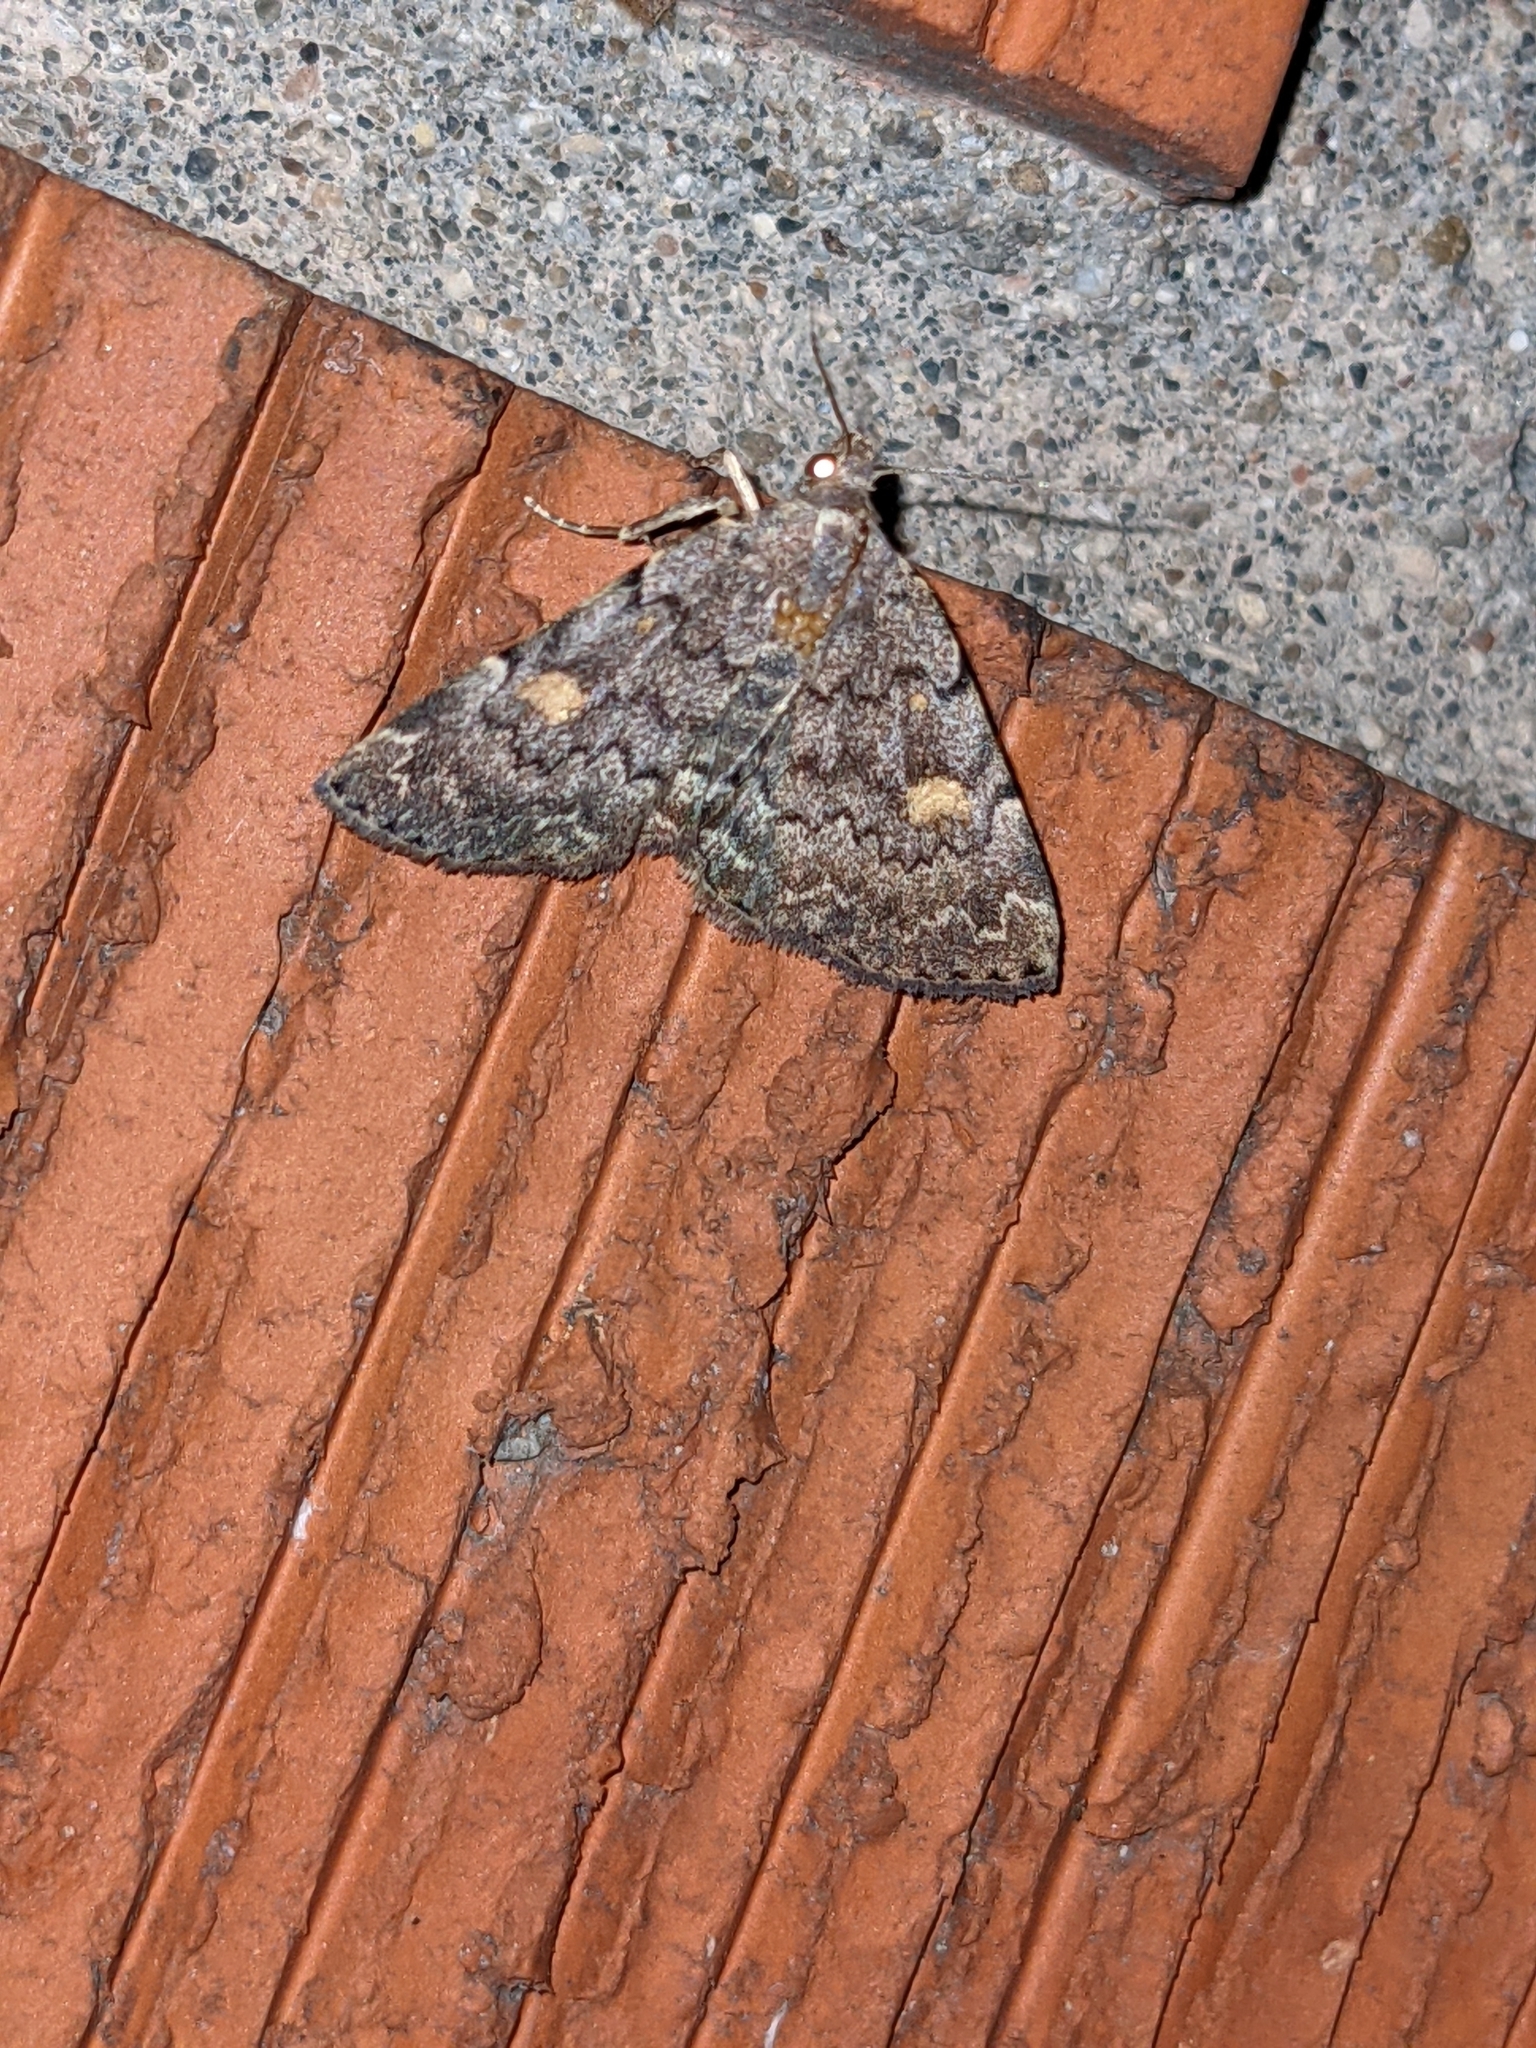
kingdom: Animalia
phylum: Arthropoda
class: Insecta
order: Lepidoptera
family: Erebidae
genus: Idia
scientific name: Idia aemula
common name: Common idia moth
